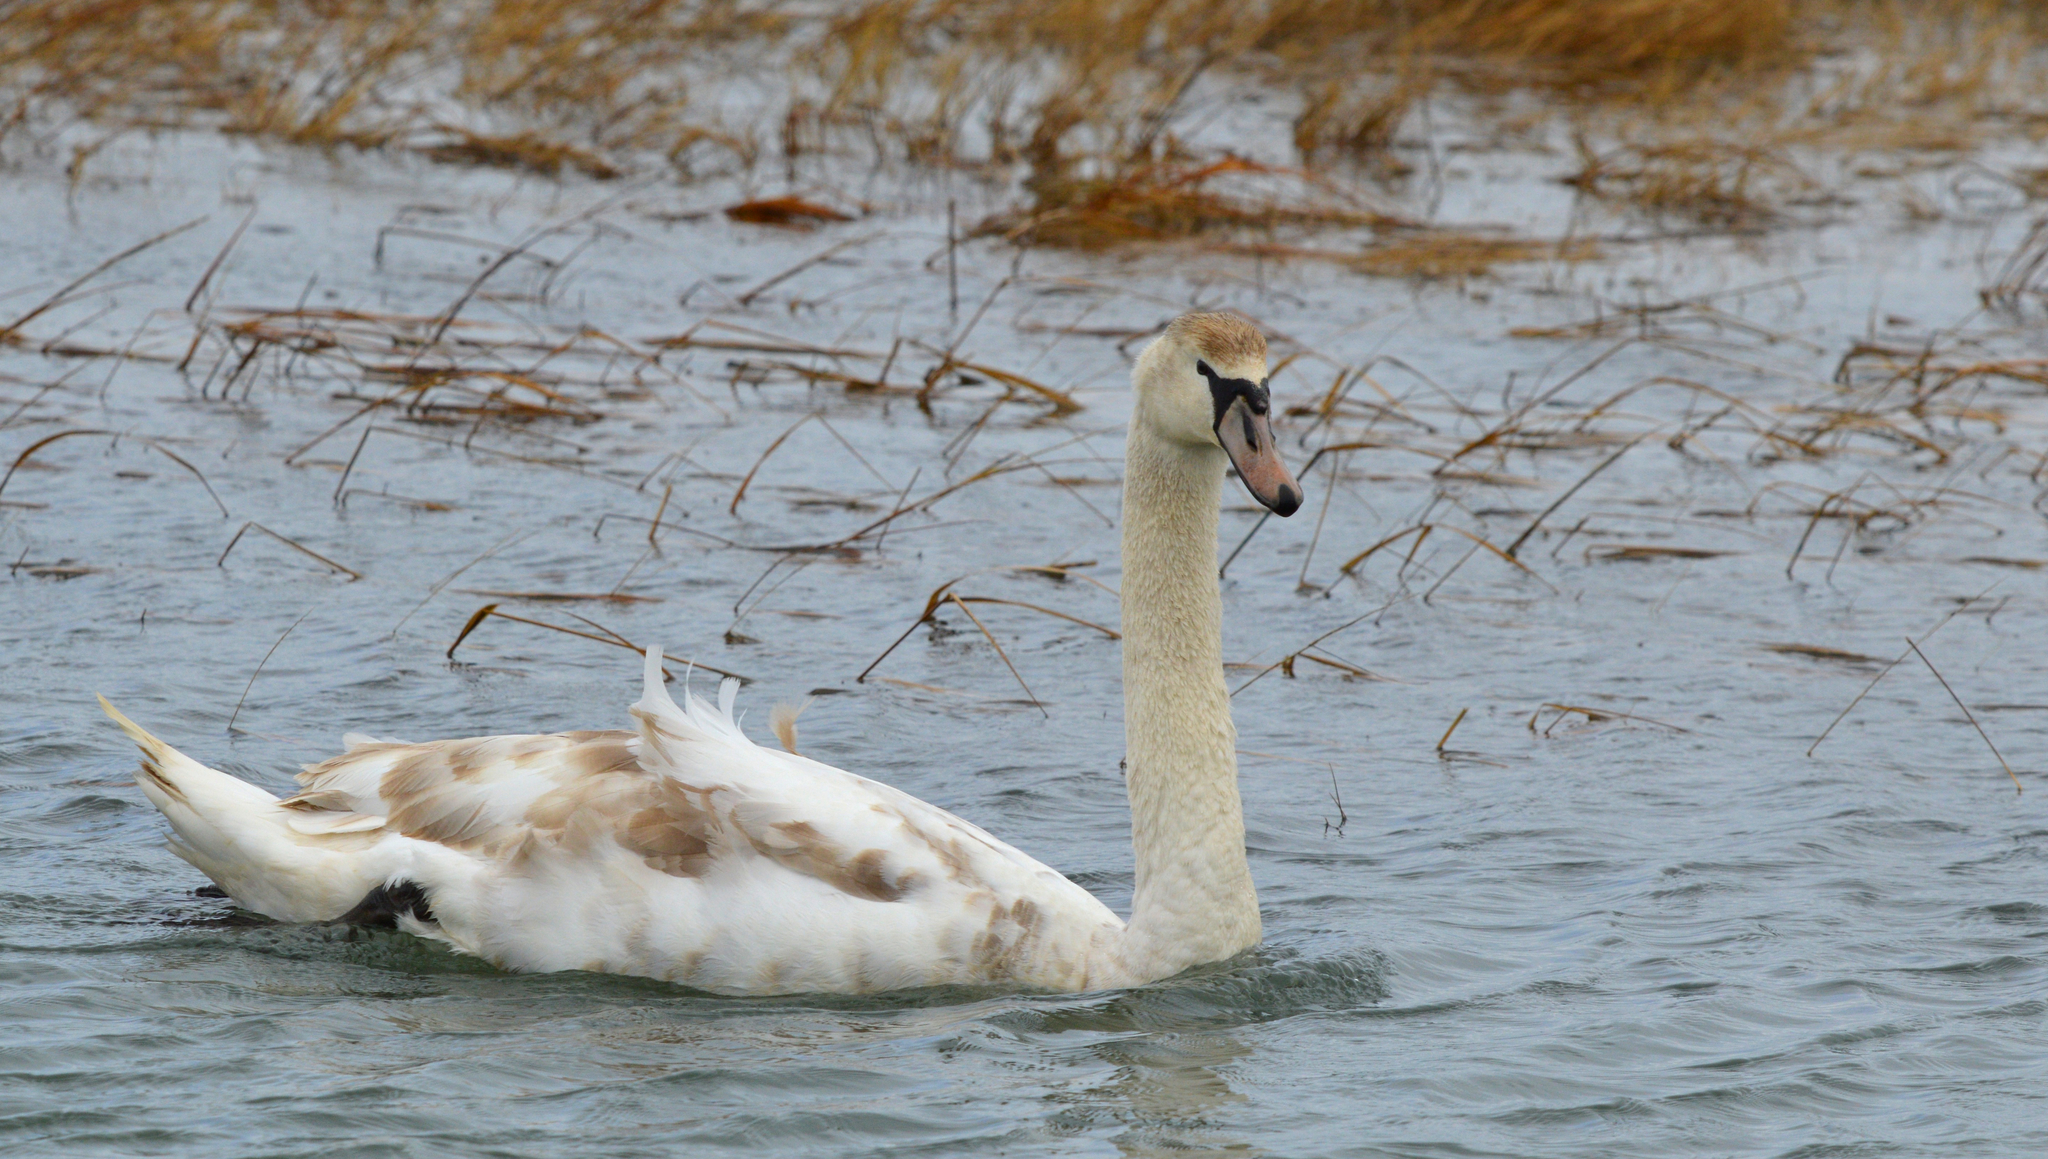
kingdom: Animalia
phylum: Chordata
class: Aves
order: Anseriformes
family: Anatidae
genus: Cygnus
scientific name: Cygnus olor
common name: Mute swan
